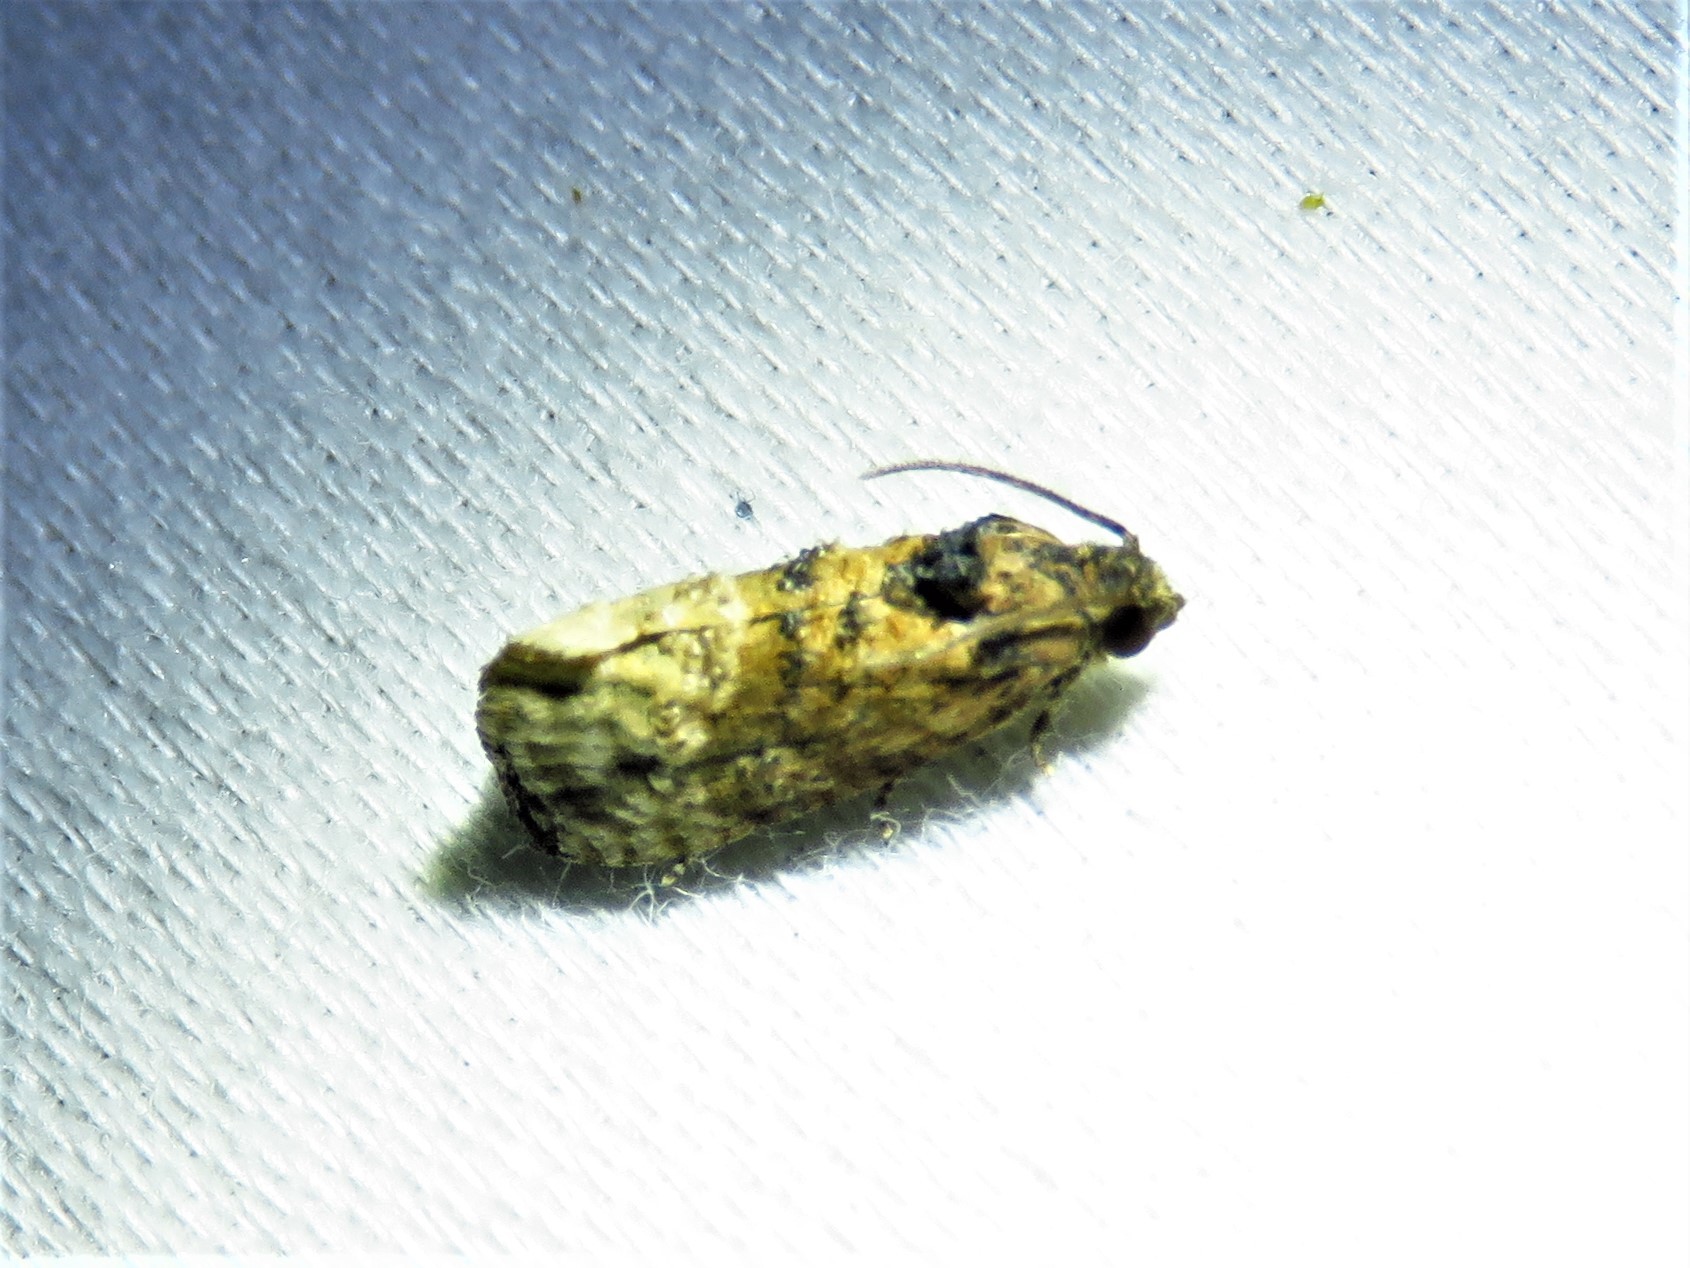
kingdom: Animalia
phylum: Arthropoda
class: Insecta
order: Lepidoptera
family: Tortricidae
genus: Ecdytolopha
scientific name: Ecdytolopha mana
